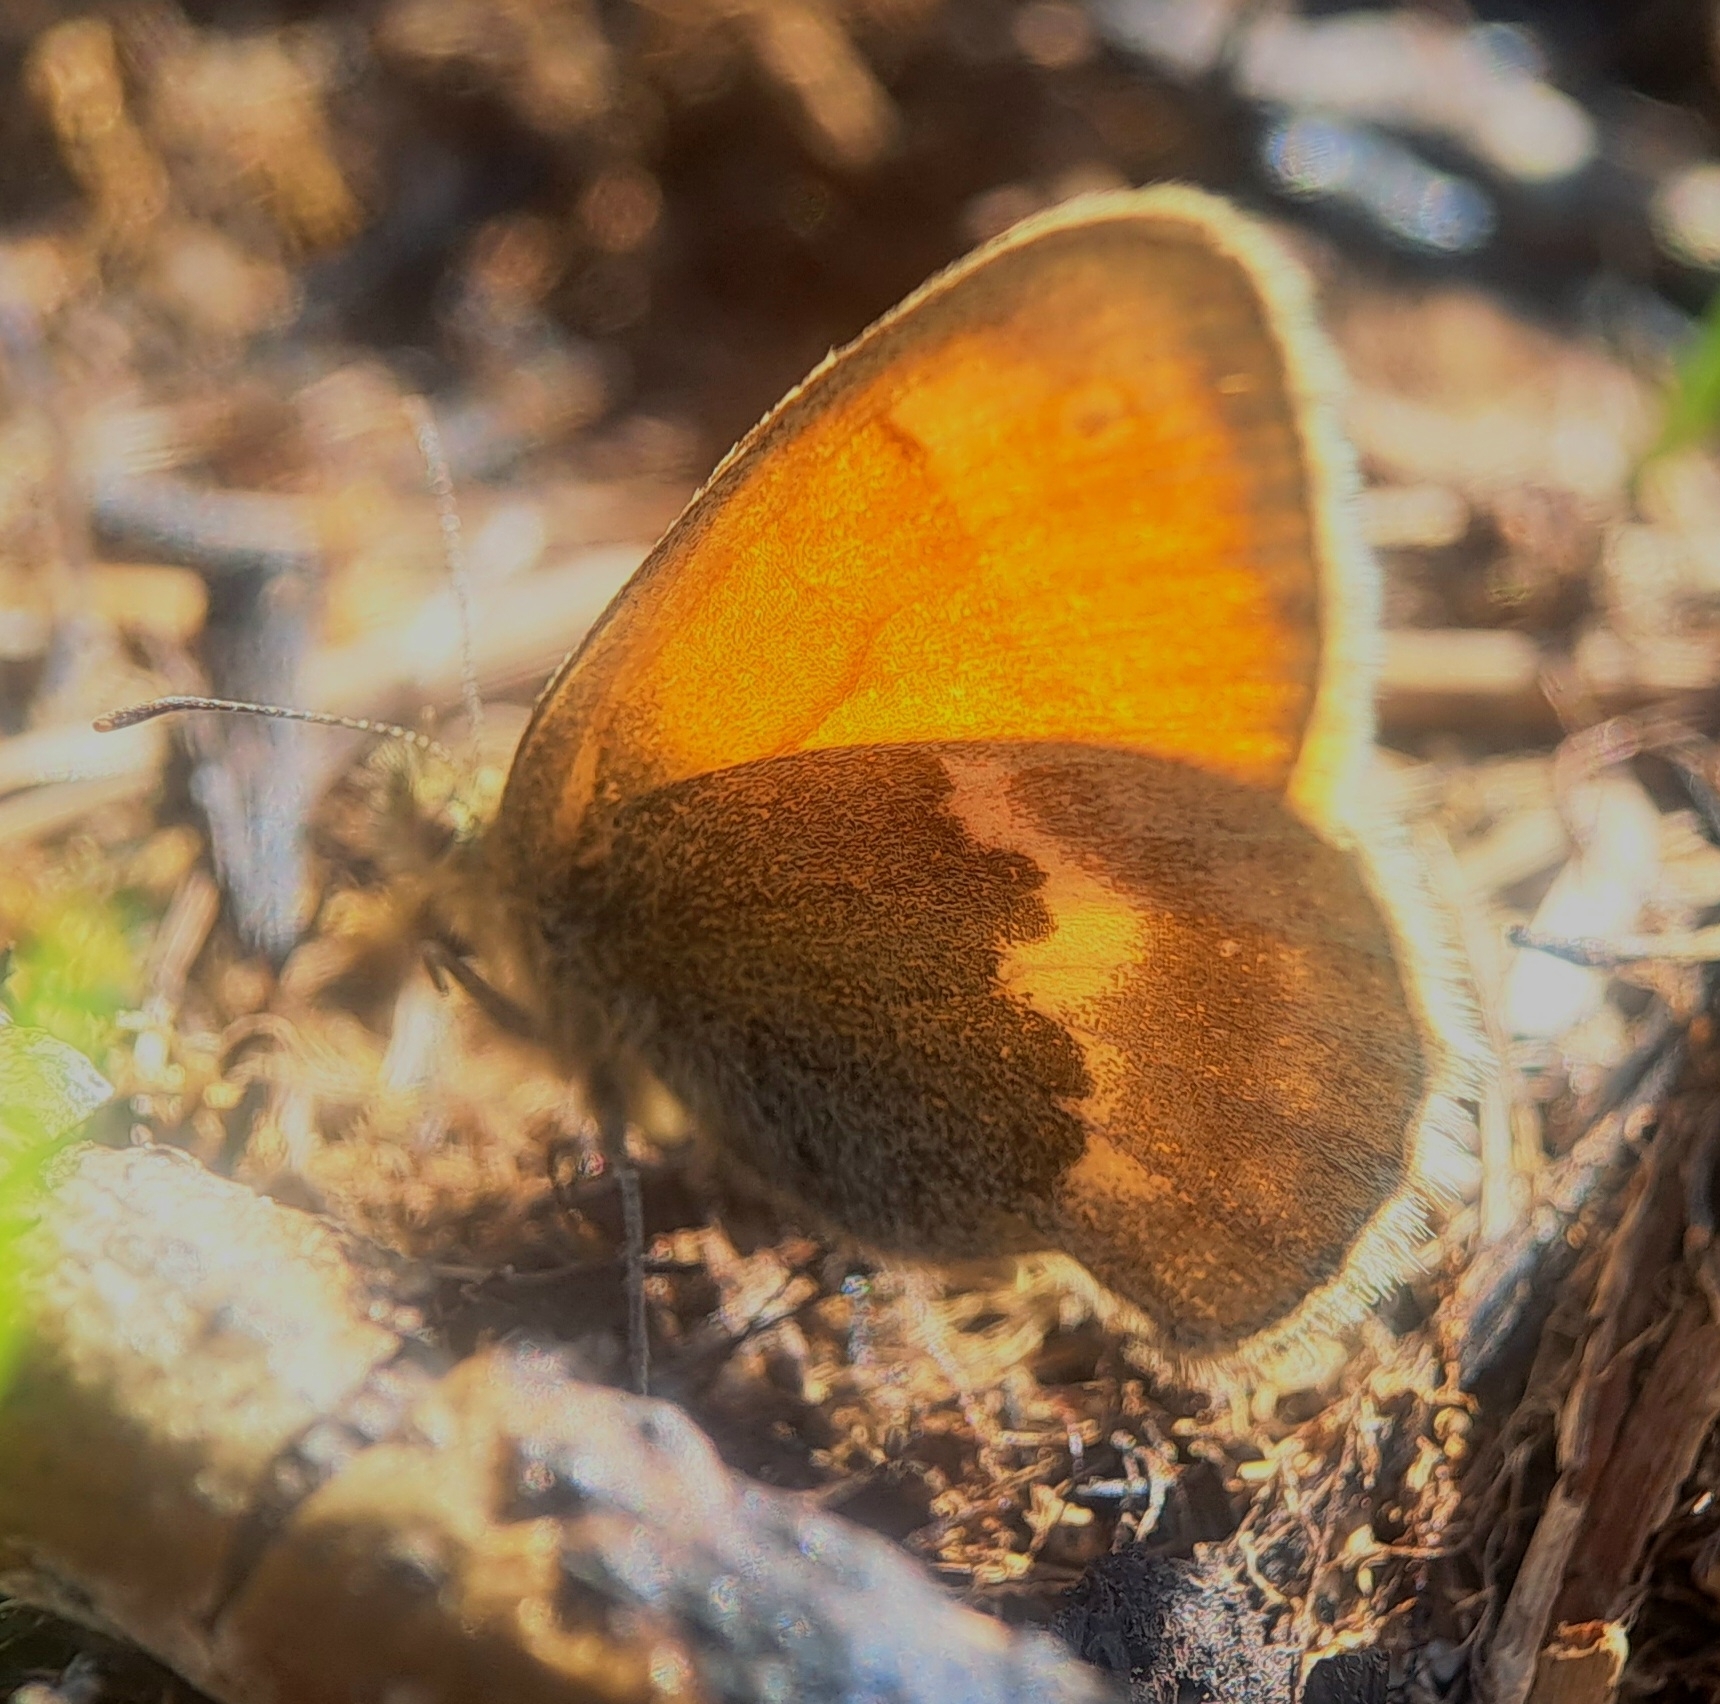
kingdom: Animalia
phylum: Arthropoda
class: Insecta
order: Lepidoptera
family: Nymphalidae
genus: Coenonympha
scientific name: Coenonympha pamphilus
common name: Small heath
